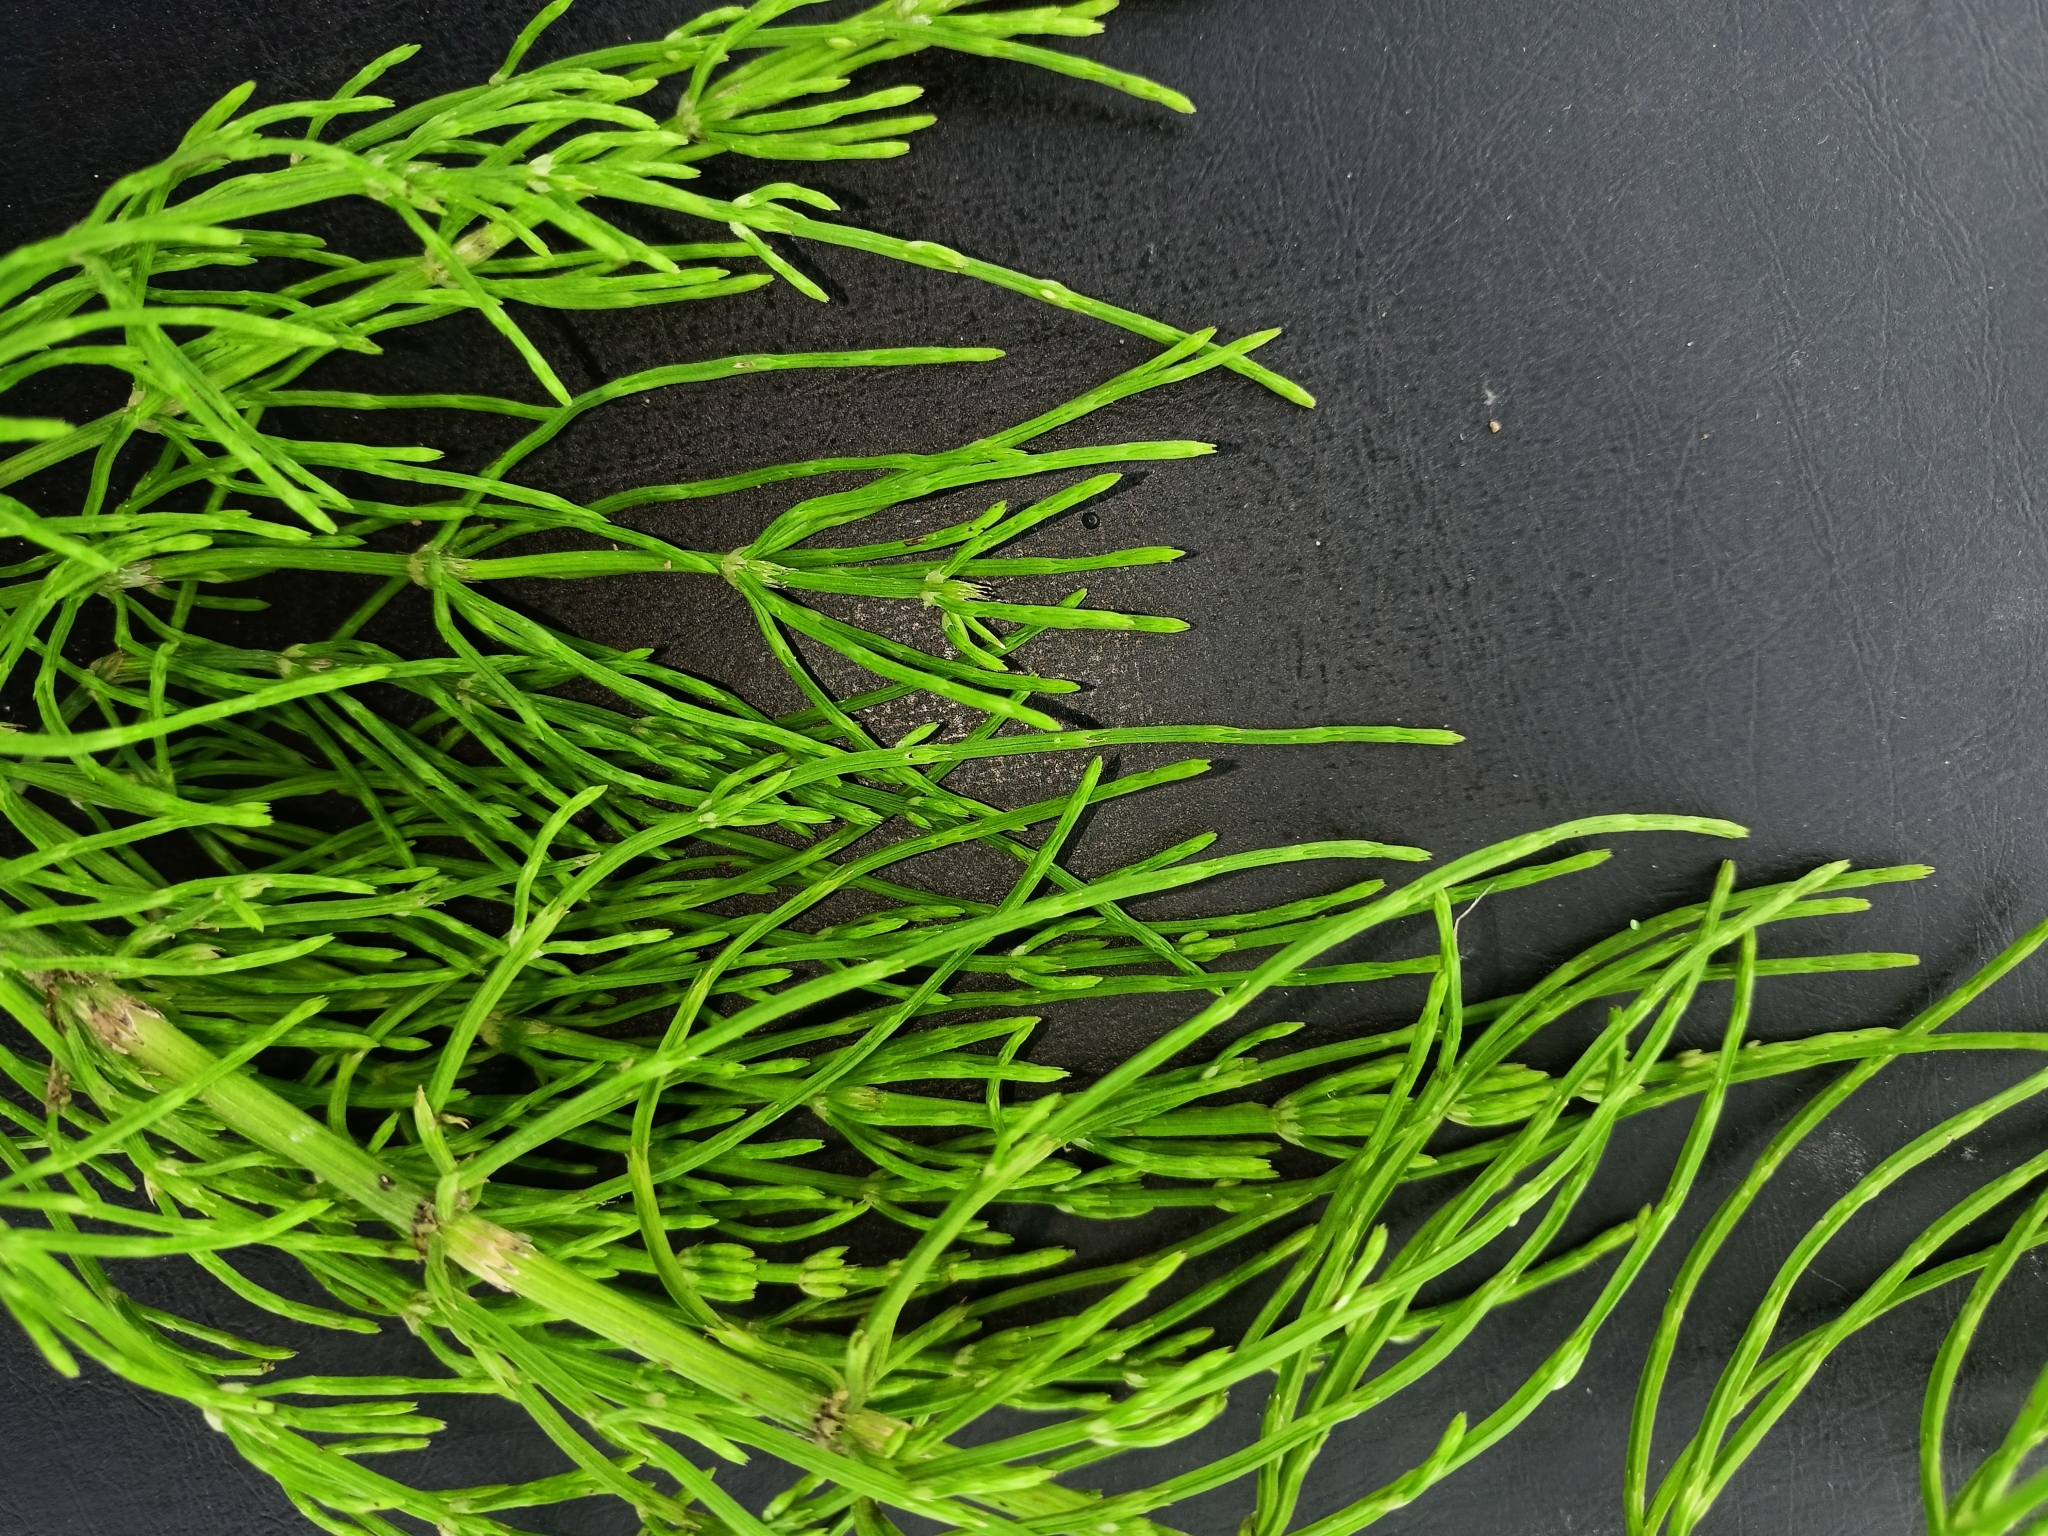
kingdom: Plantae
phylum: Tracheophyta
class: Polypodiopsida
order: Equisetales
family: Equisetaceae
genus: Equisetum
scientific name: Equisetum arvense
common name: Field horsetail
